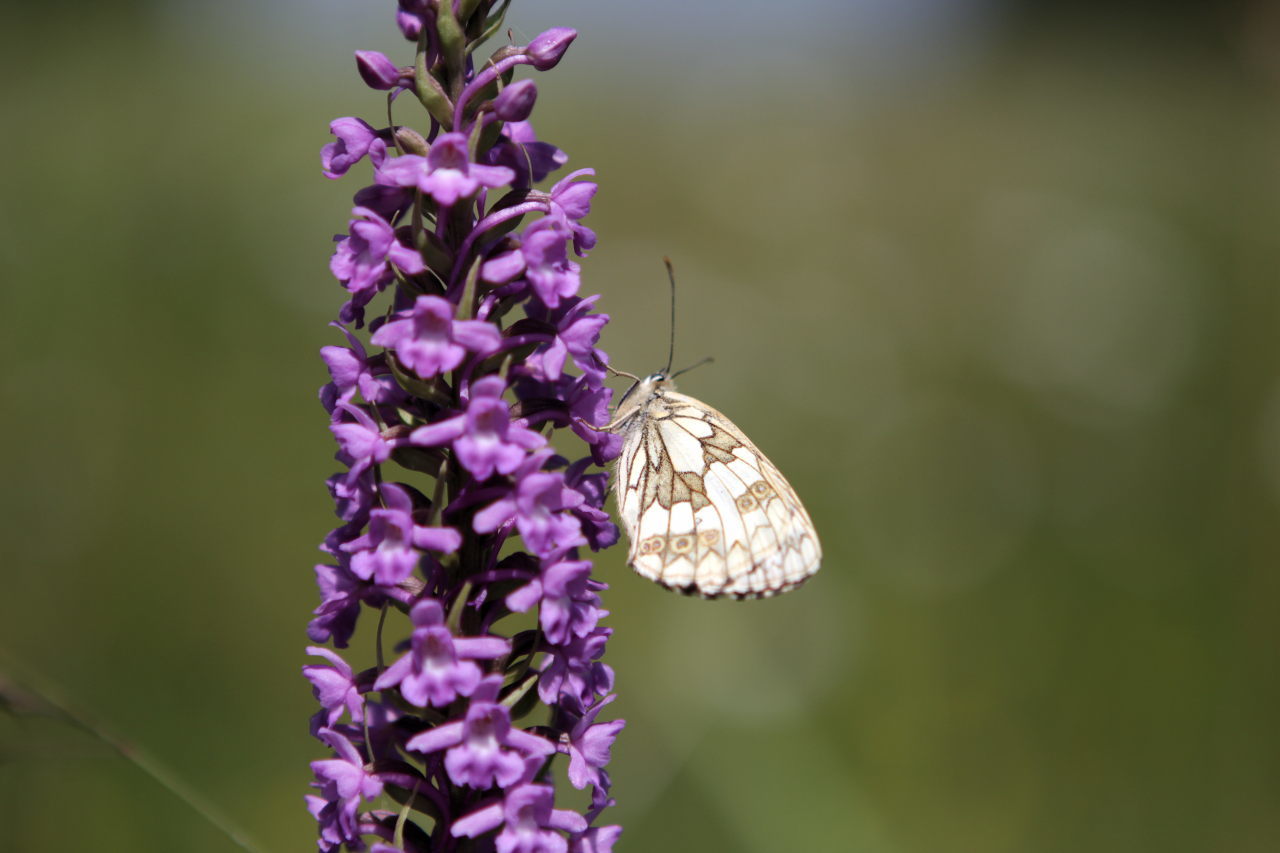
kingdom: Animalia
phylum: Arthropoda
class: Insecta
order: Lepidoptera
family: Nymphalidae
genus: Melanargia
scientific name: Melanargia galathea
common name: Marbled white
